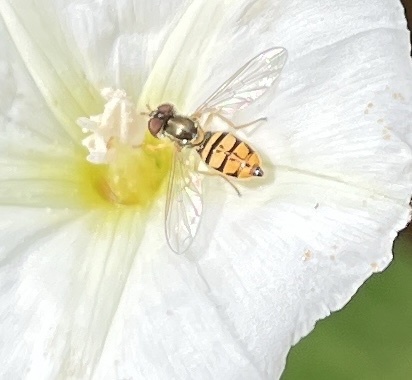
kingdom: Animalia
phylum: Arthropoda
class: Insecta
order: Diptera
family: Syrphidae
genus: Toxomerus
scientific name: Toxomerus marginatus
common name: Syrphid fly
